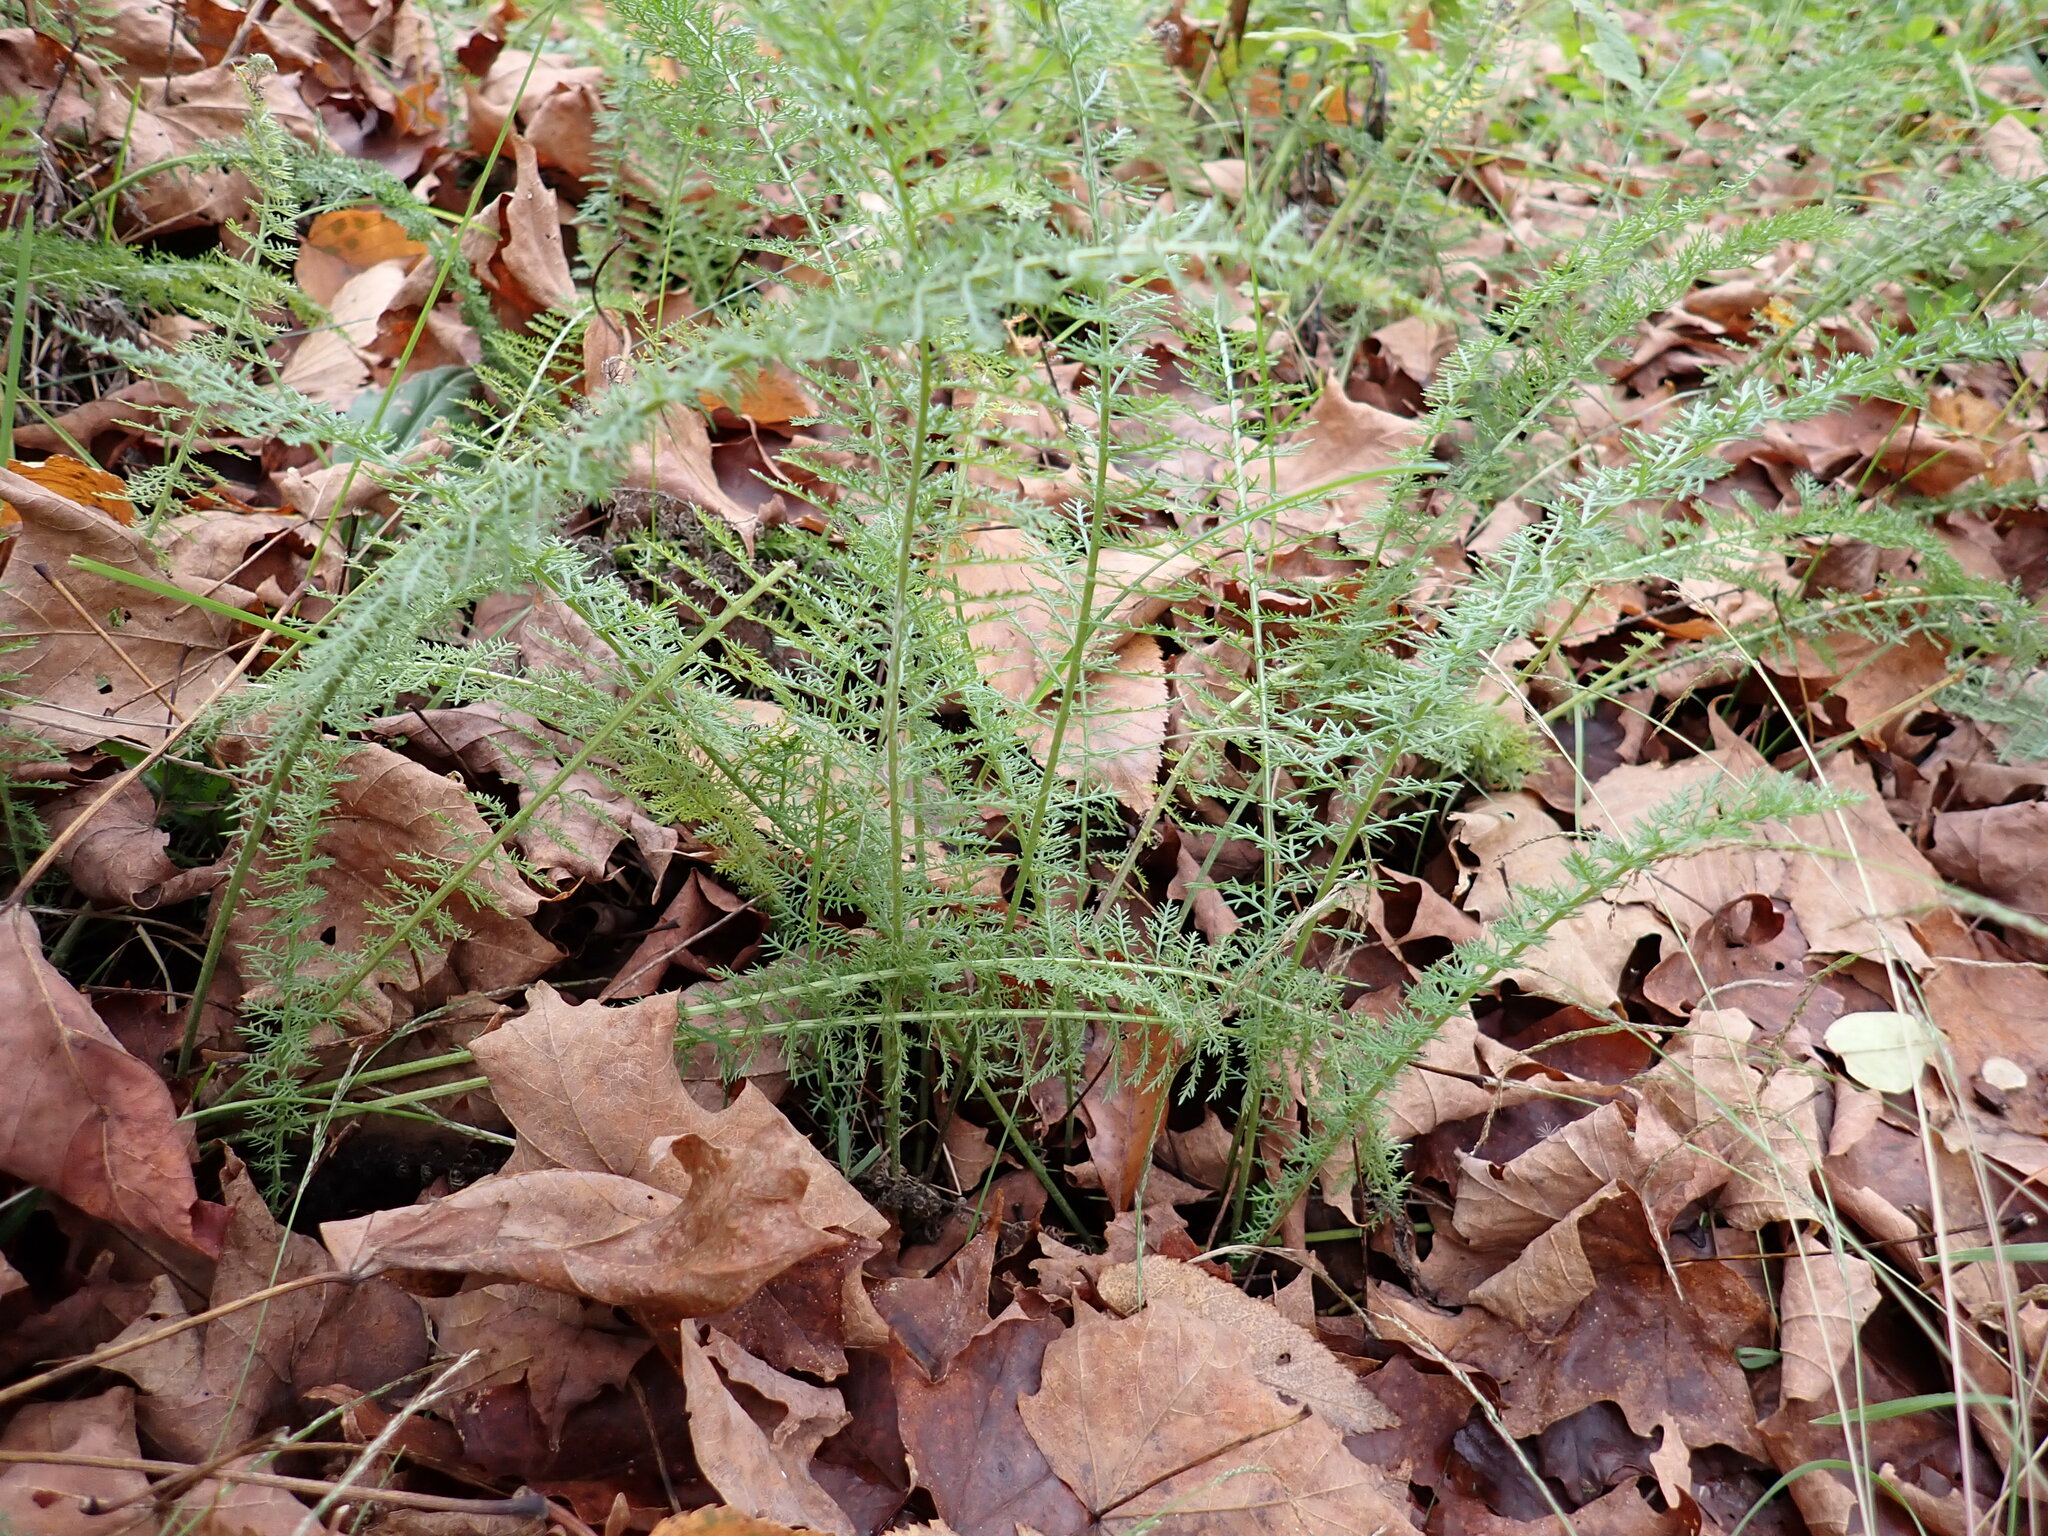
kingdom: Plantae
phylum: Tracheophyta
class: Magnoliopsida
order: Asterales
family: Asteraceae
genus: Achillea
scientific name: Achillea millefolium
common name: Yarrow
